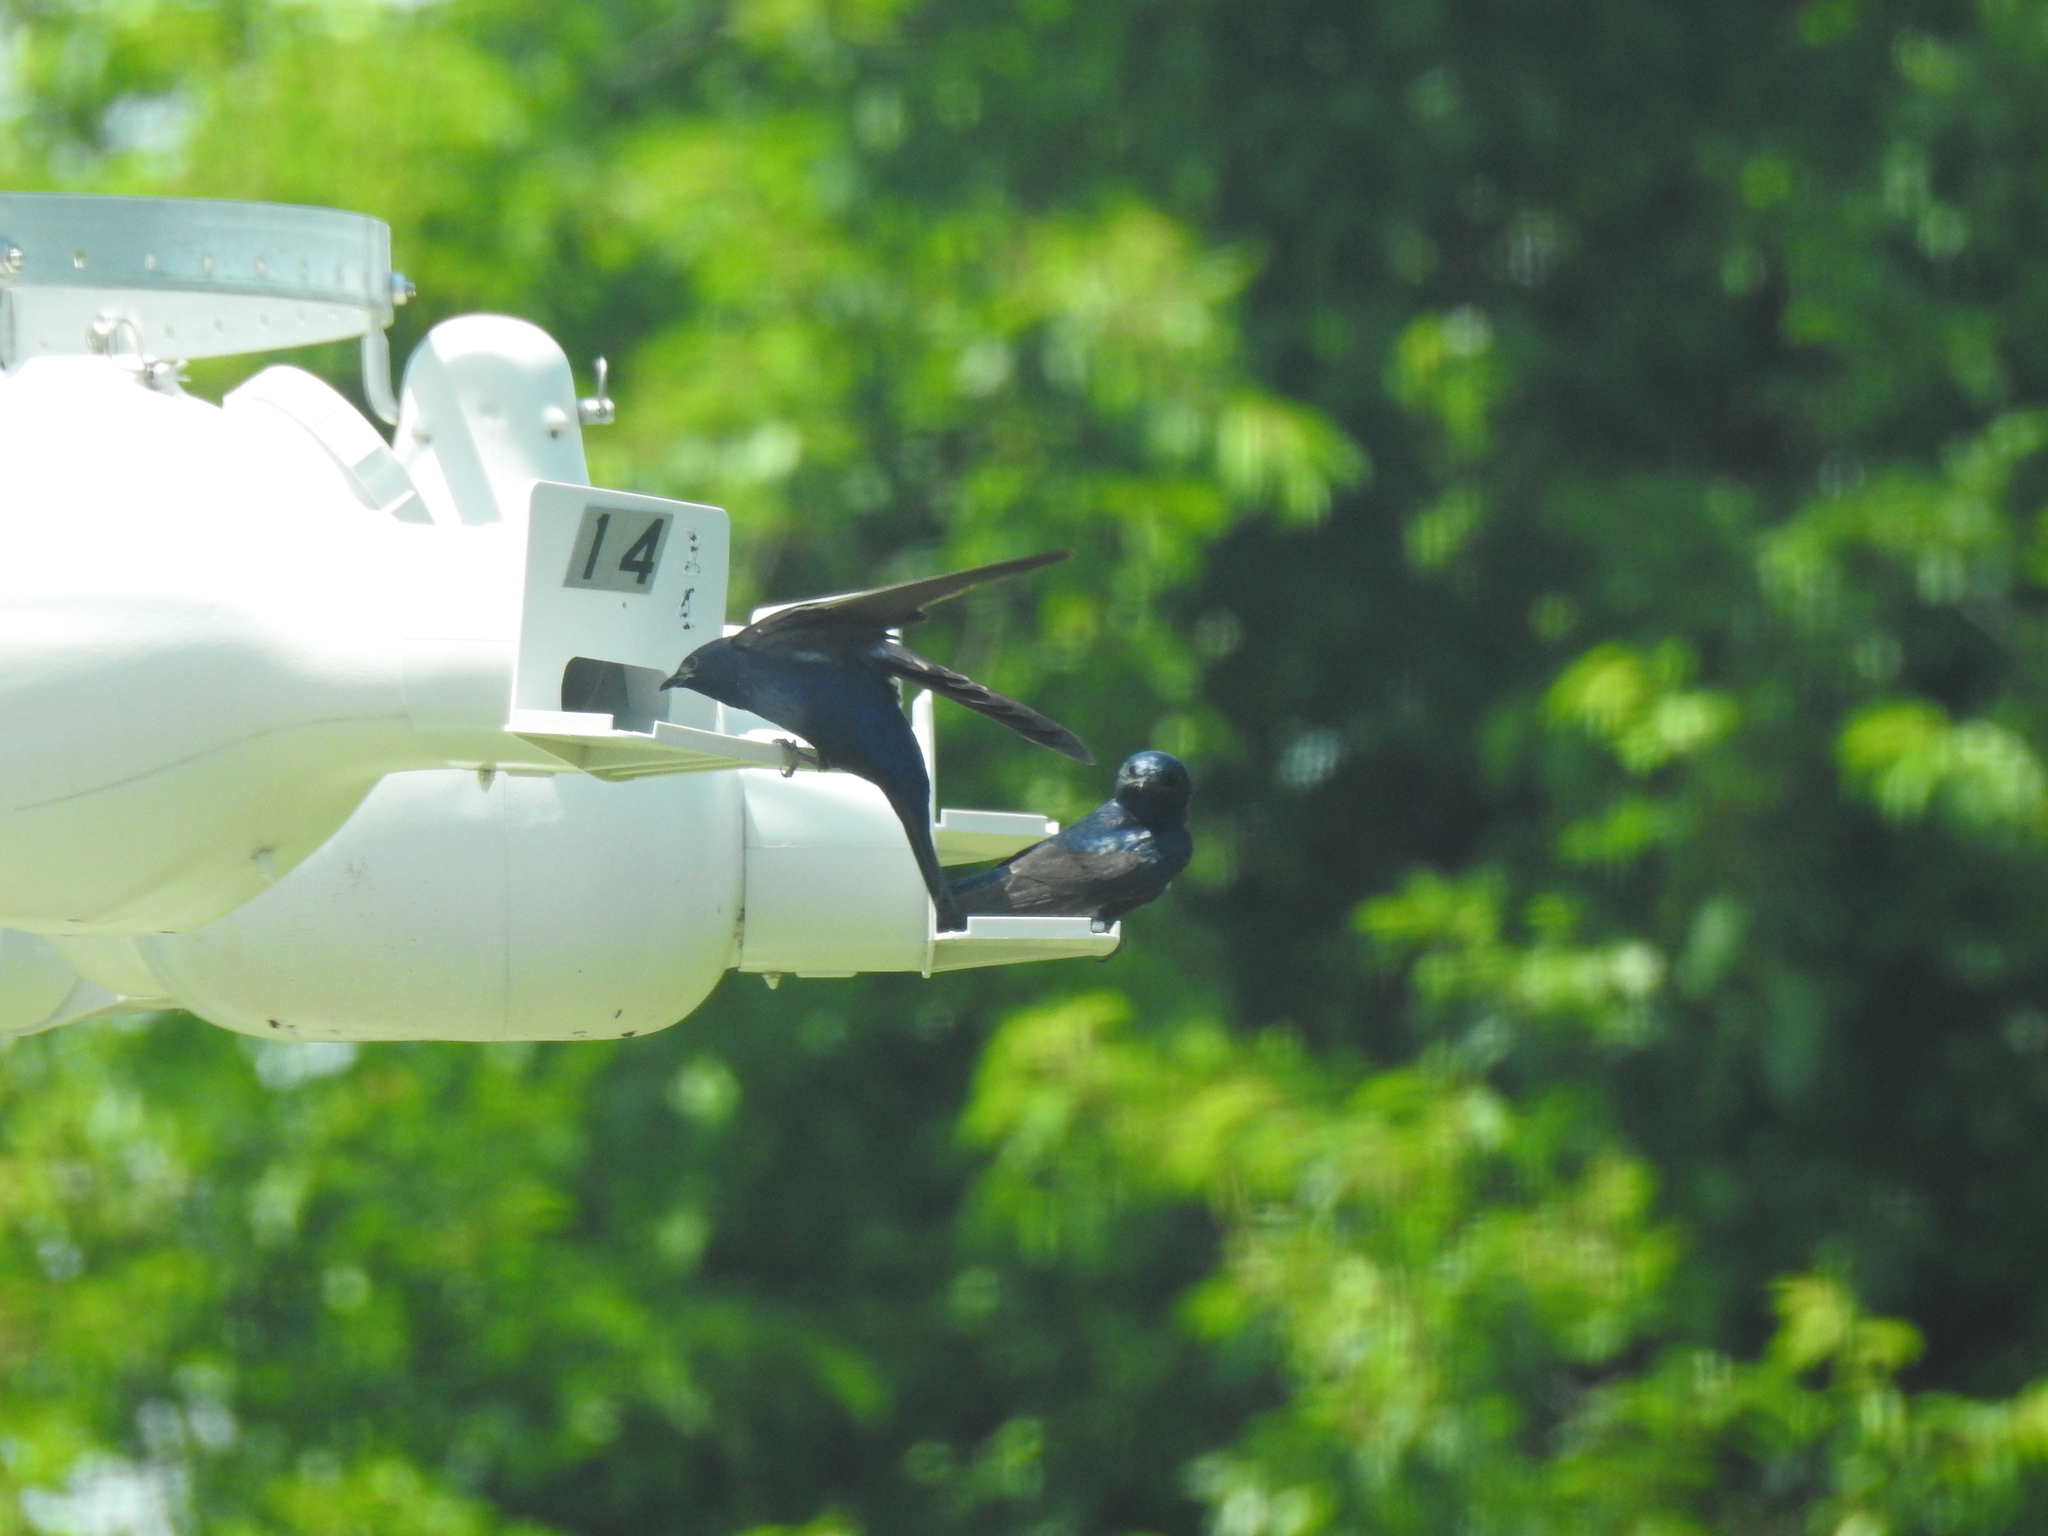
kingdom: Animalia
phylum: Chordata
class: Aves
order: Passeriformes
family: Hirundinidae
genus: Progne
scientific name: Progne subis
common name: Purple martin
